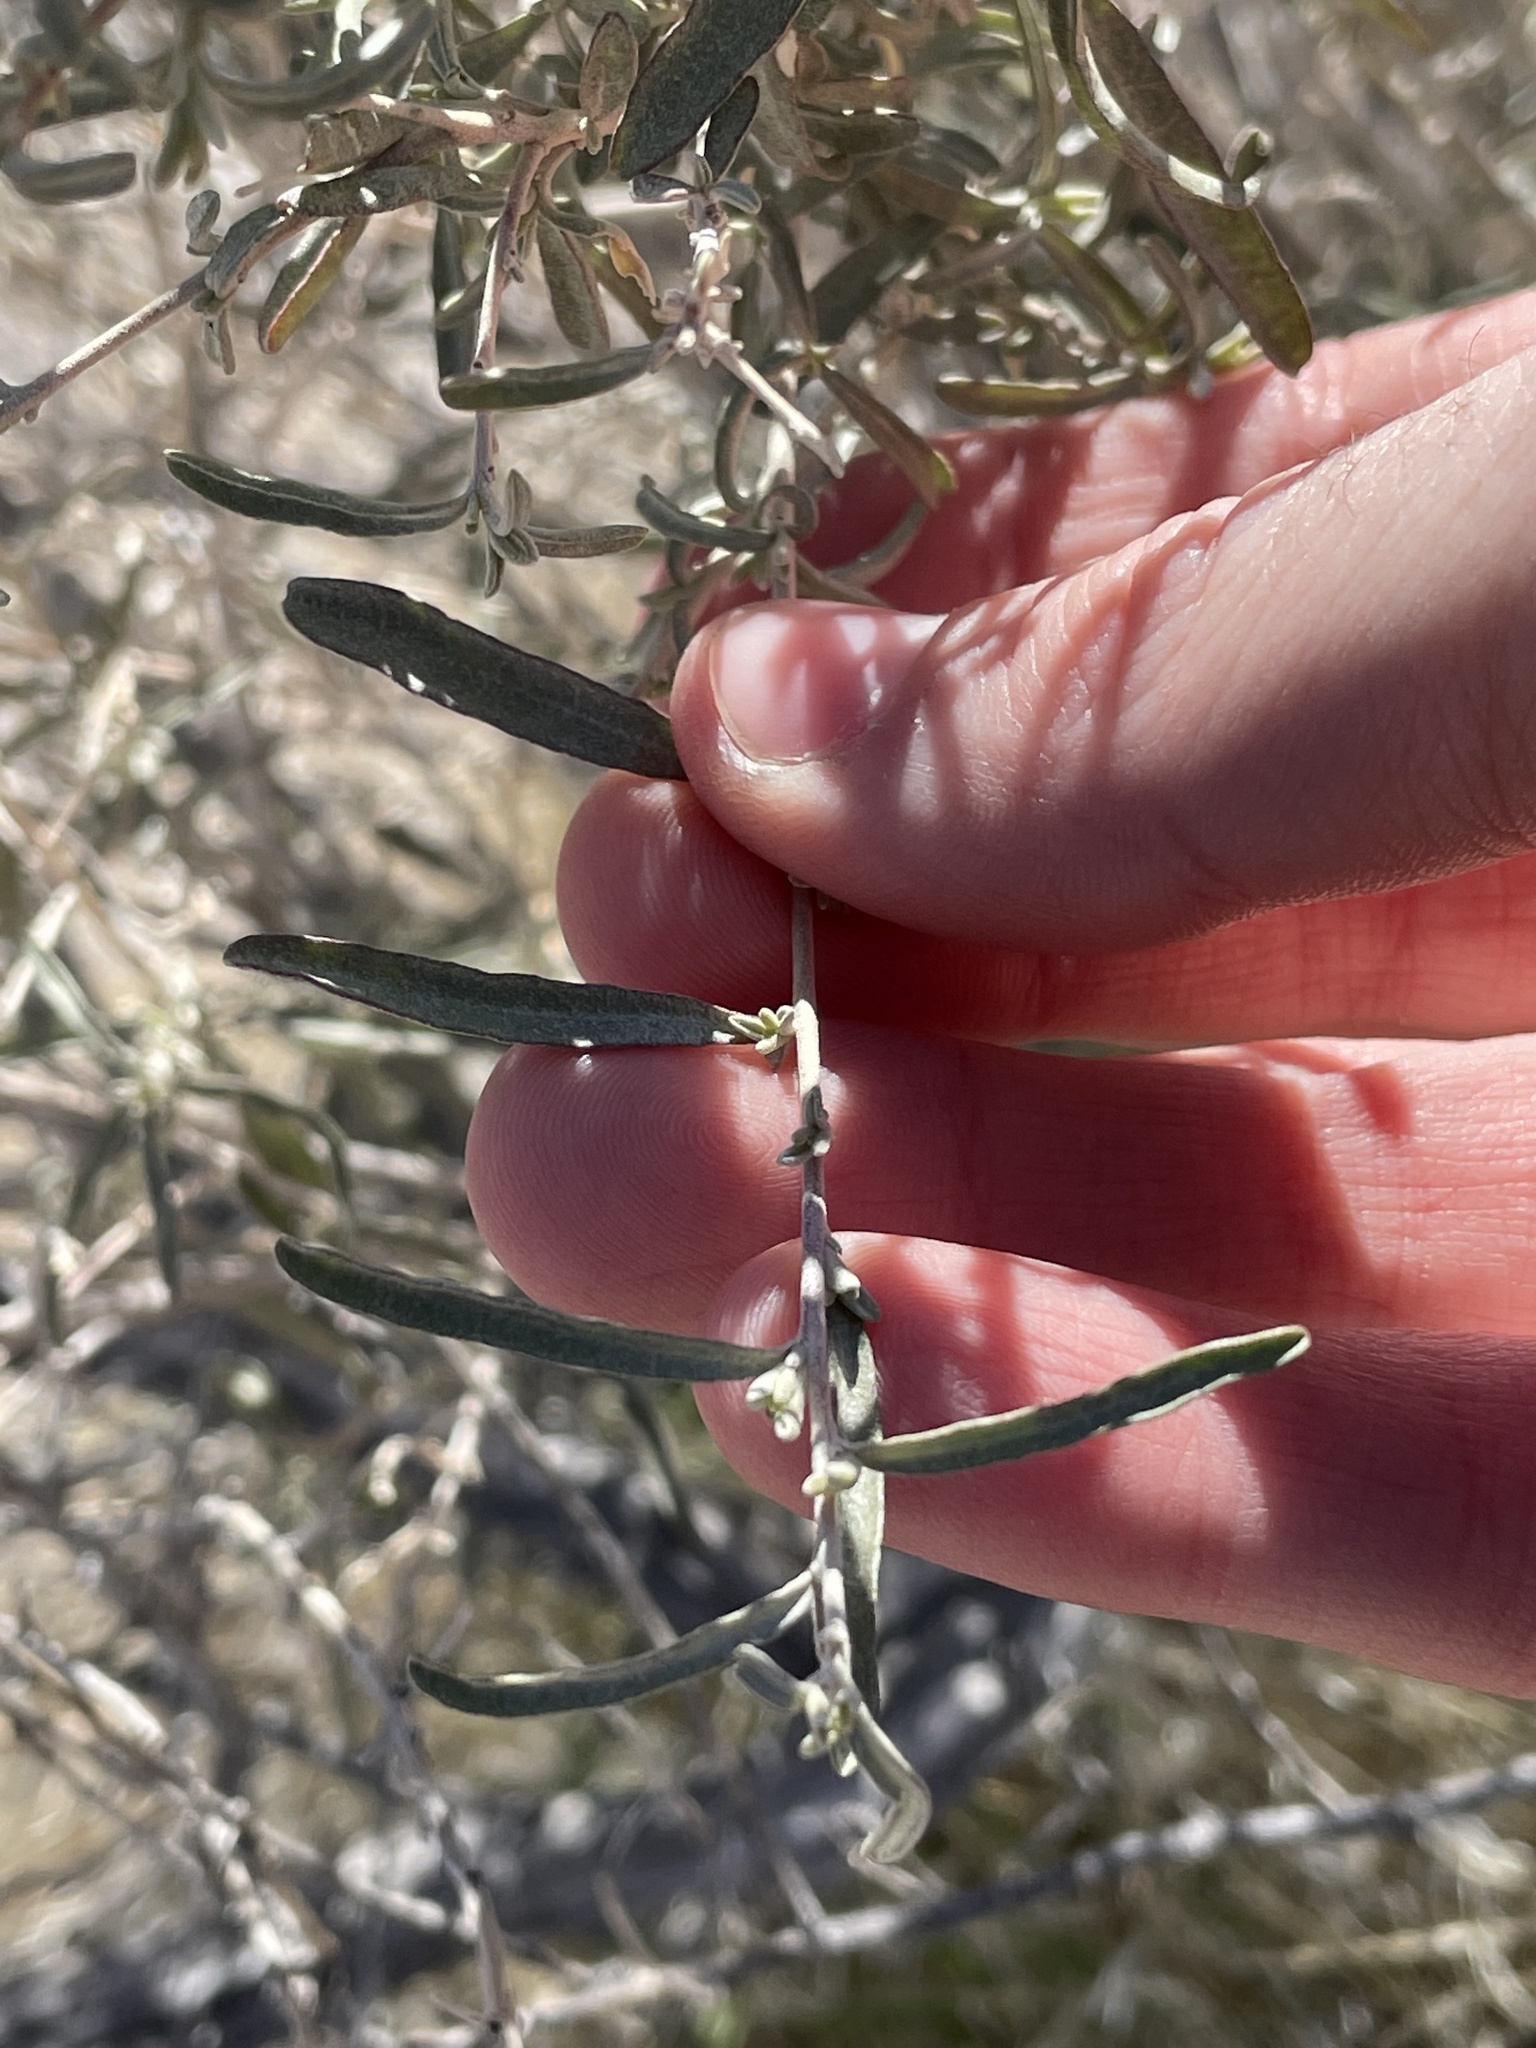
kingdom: Plantae
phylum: Tracheophyta
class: Magnoliopsida
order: Caryophyllales
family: Amaranthaceae
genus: Atriplex
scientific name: Atriplex canescens
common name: Four-wing saltbush
